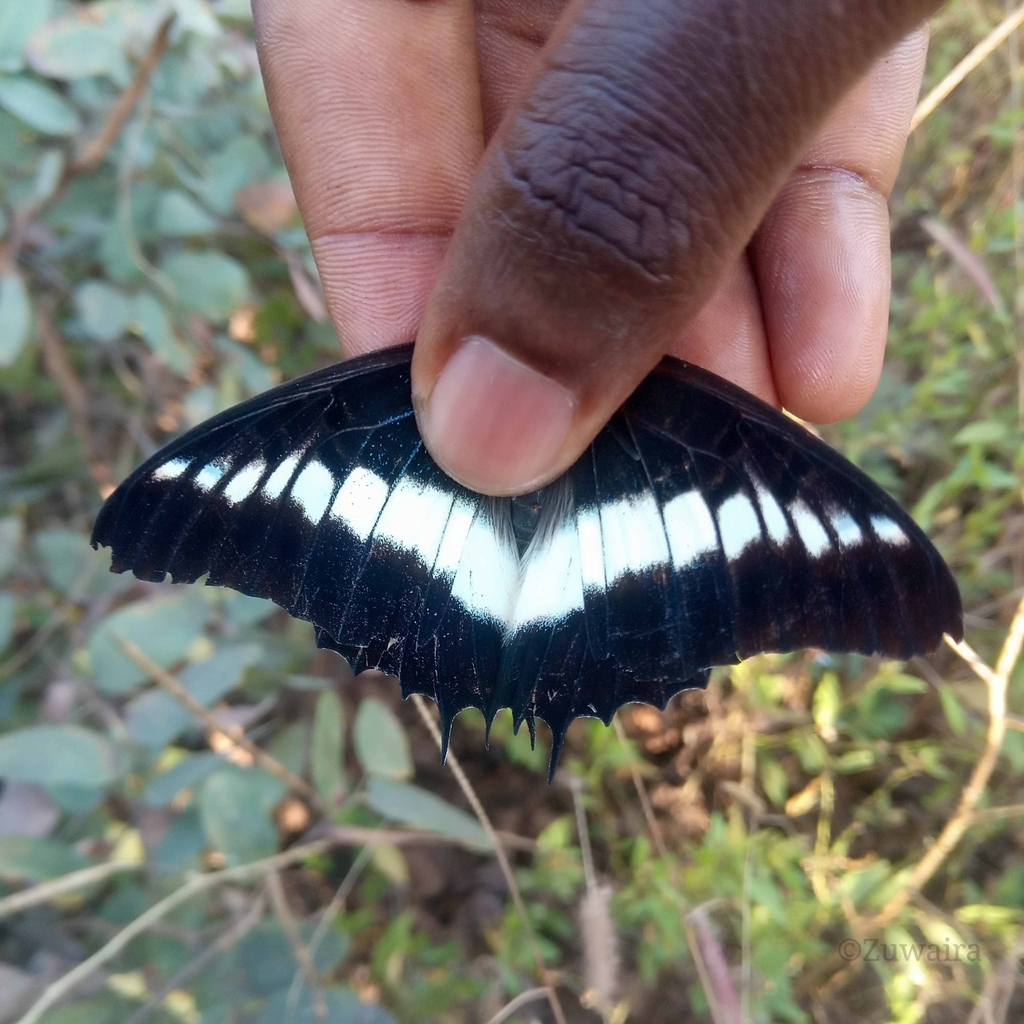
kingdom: Animalia
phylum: Arthropoda
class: Insecta
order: Lepidoptera
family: Nymphalidae
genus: Charaxes
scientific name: Charaxes brutus
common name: White-barred charaxes
